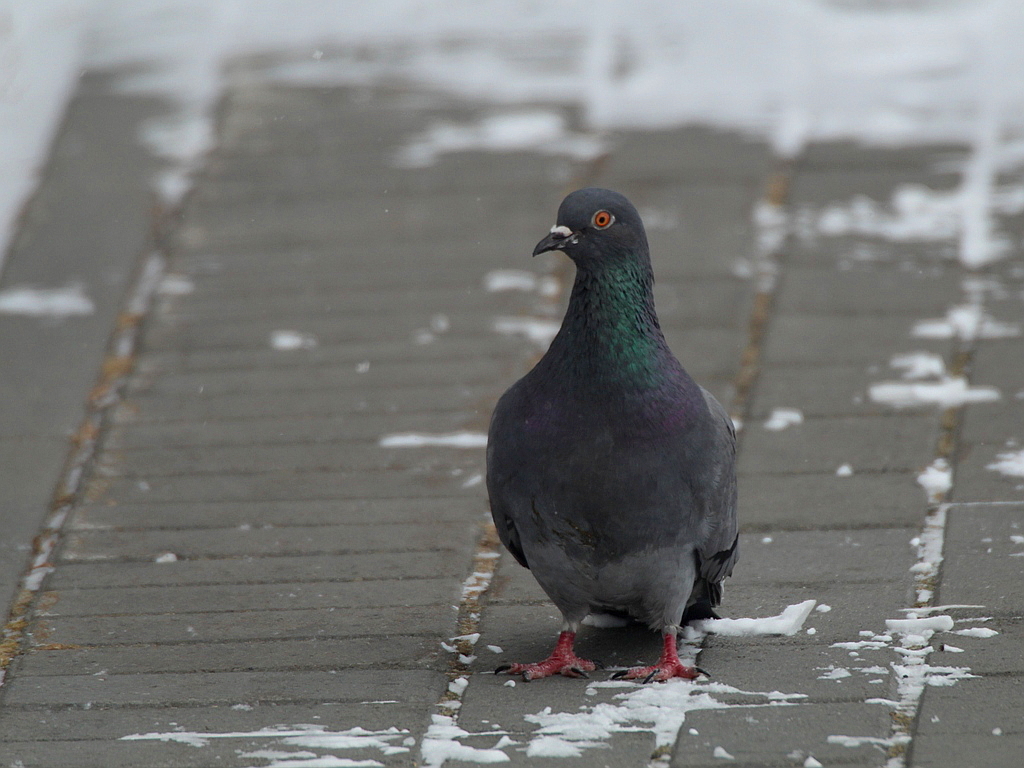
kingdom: Animalia
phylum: Chordata
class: Aves
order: Columbiformes
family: Columbidae
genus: Columba
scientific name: Columba livia
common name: Rock pigeon
